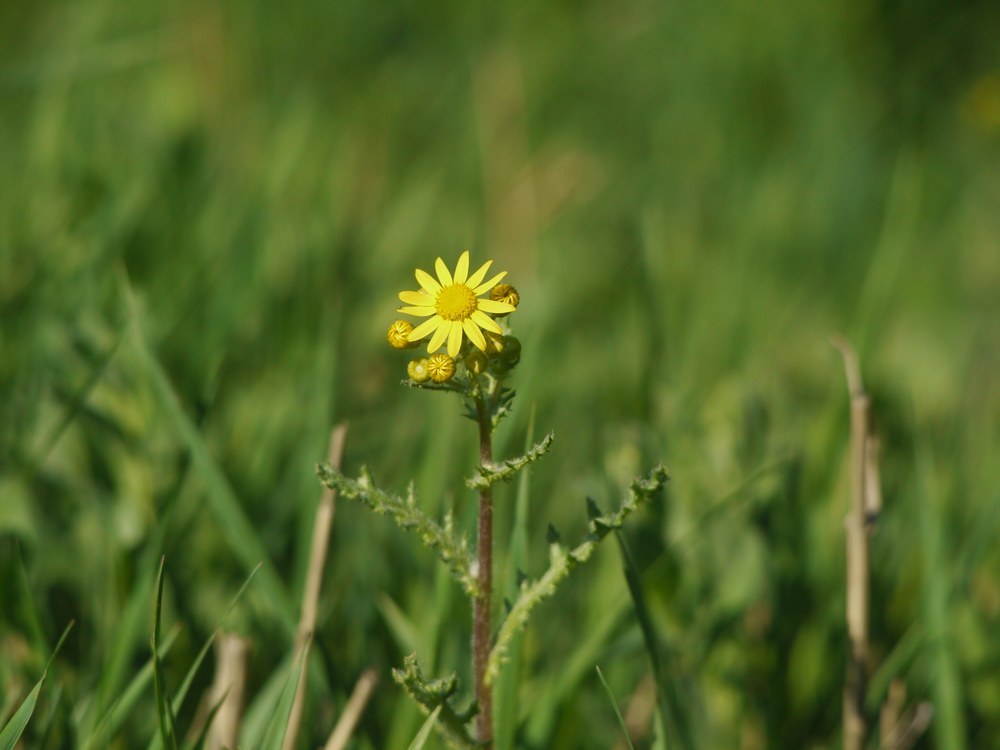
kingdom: Plantae
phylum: Tracheophyta
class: Magnoliopsida
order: Asterales
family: Asteraceae
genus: Senecio
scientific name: Senecio vernalis
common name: Eastern groundsel
